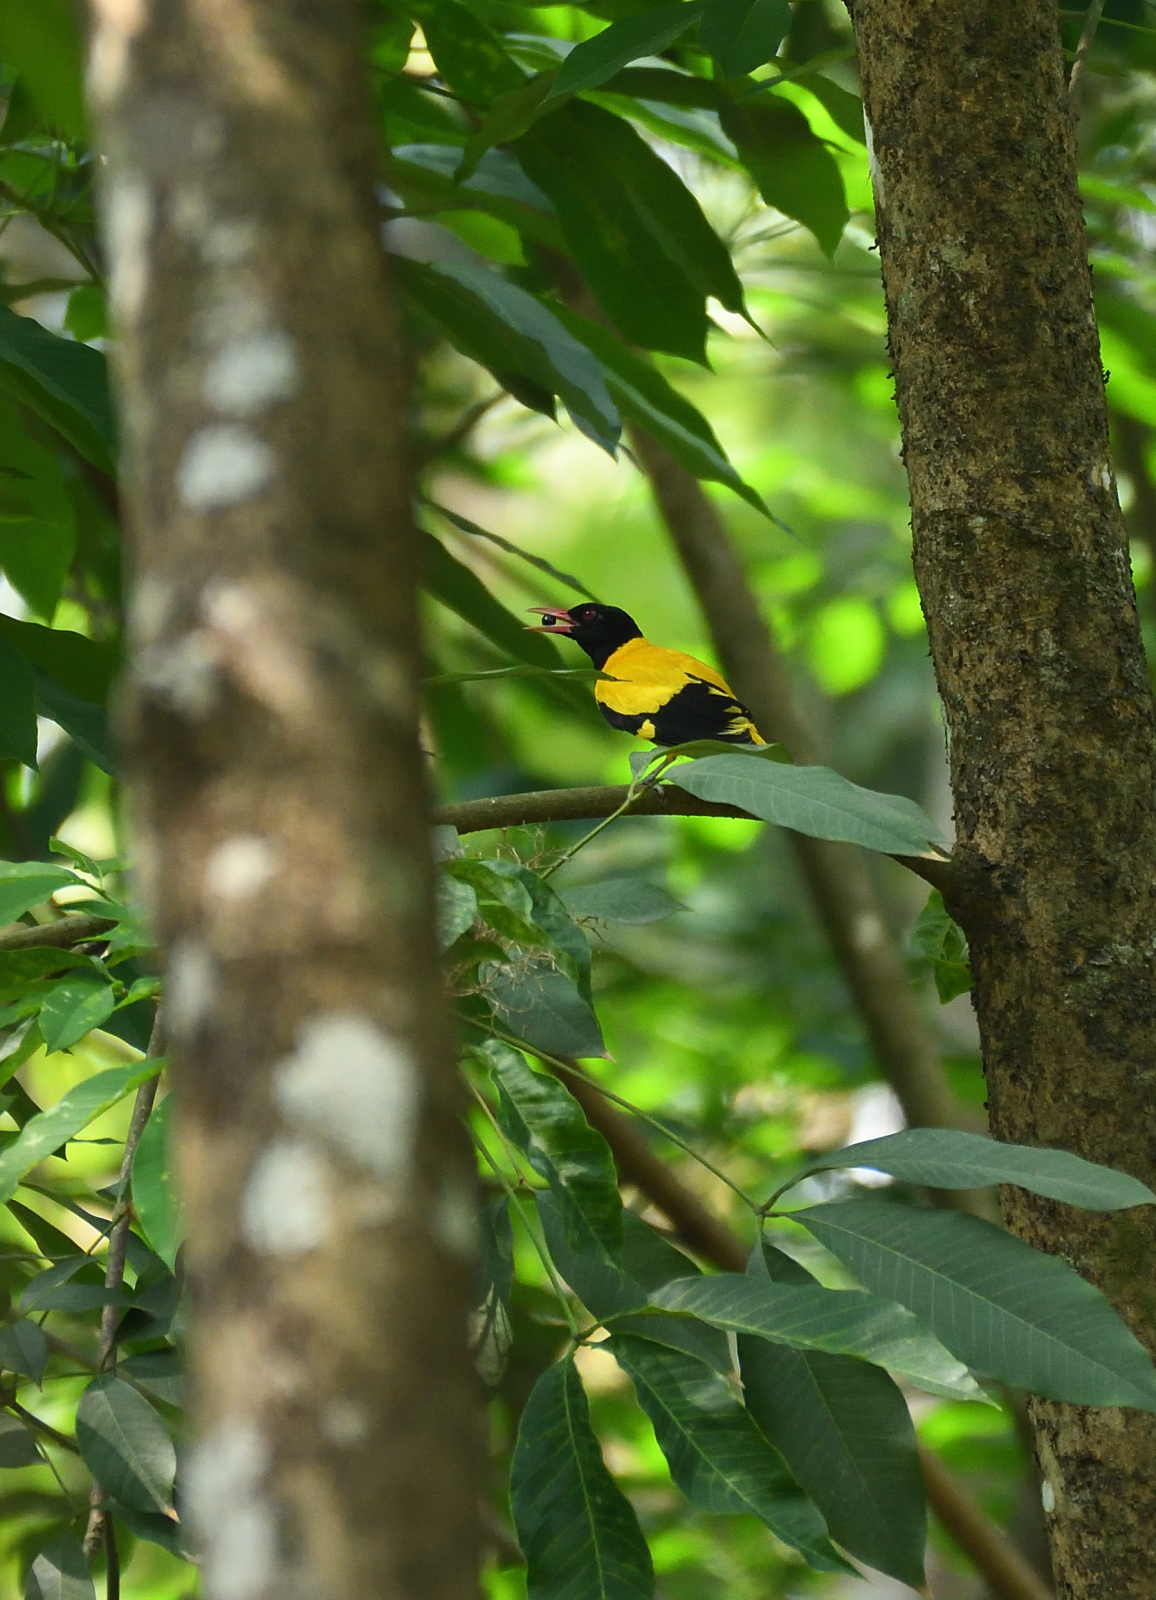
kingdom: Animalia
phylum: Chordata
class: Aves
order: Passeriformes
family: Oriolidae
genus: Oriolus
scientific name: Oriolus xanthornus
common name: Black-hooded oriole
